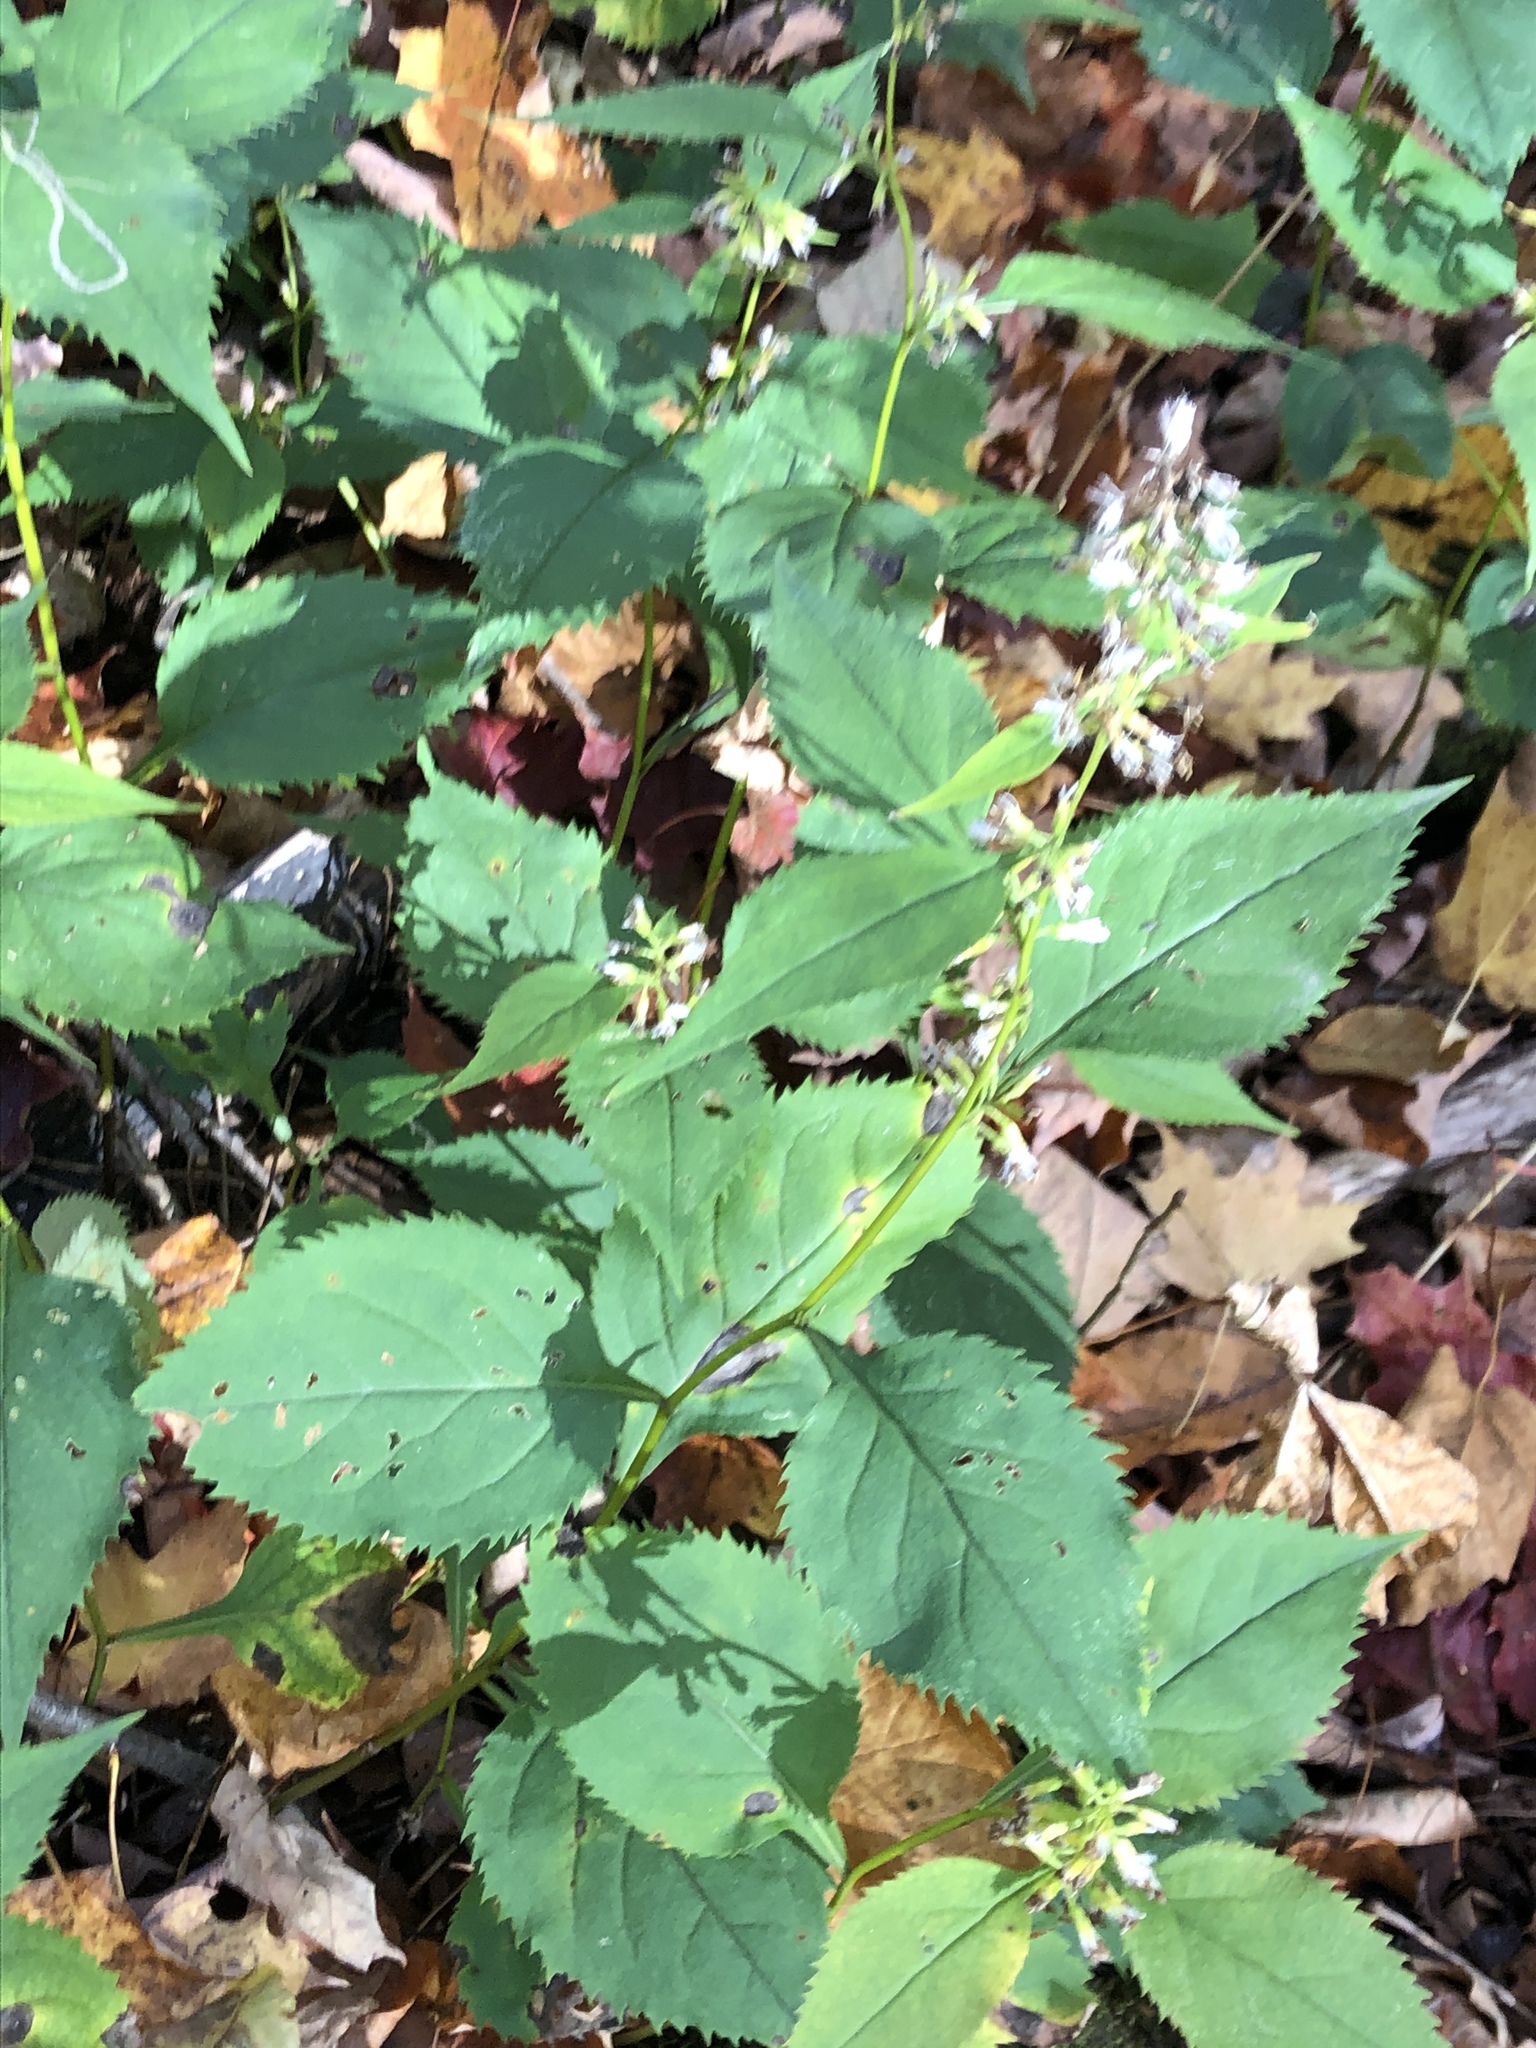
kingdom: Plantae
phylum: Tracheophyta
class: Magnoliopsida
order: Asterales
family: Asteraceae
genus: Solidago
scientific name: Solidago flexicaulis
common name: Zig-zag goldenrod
